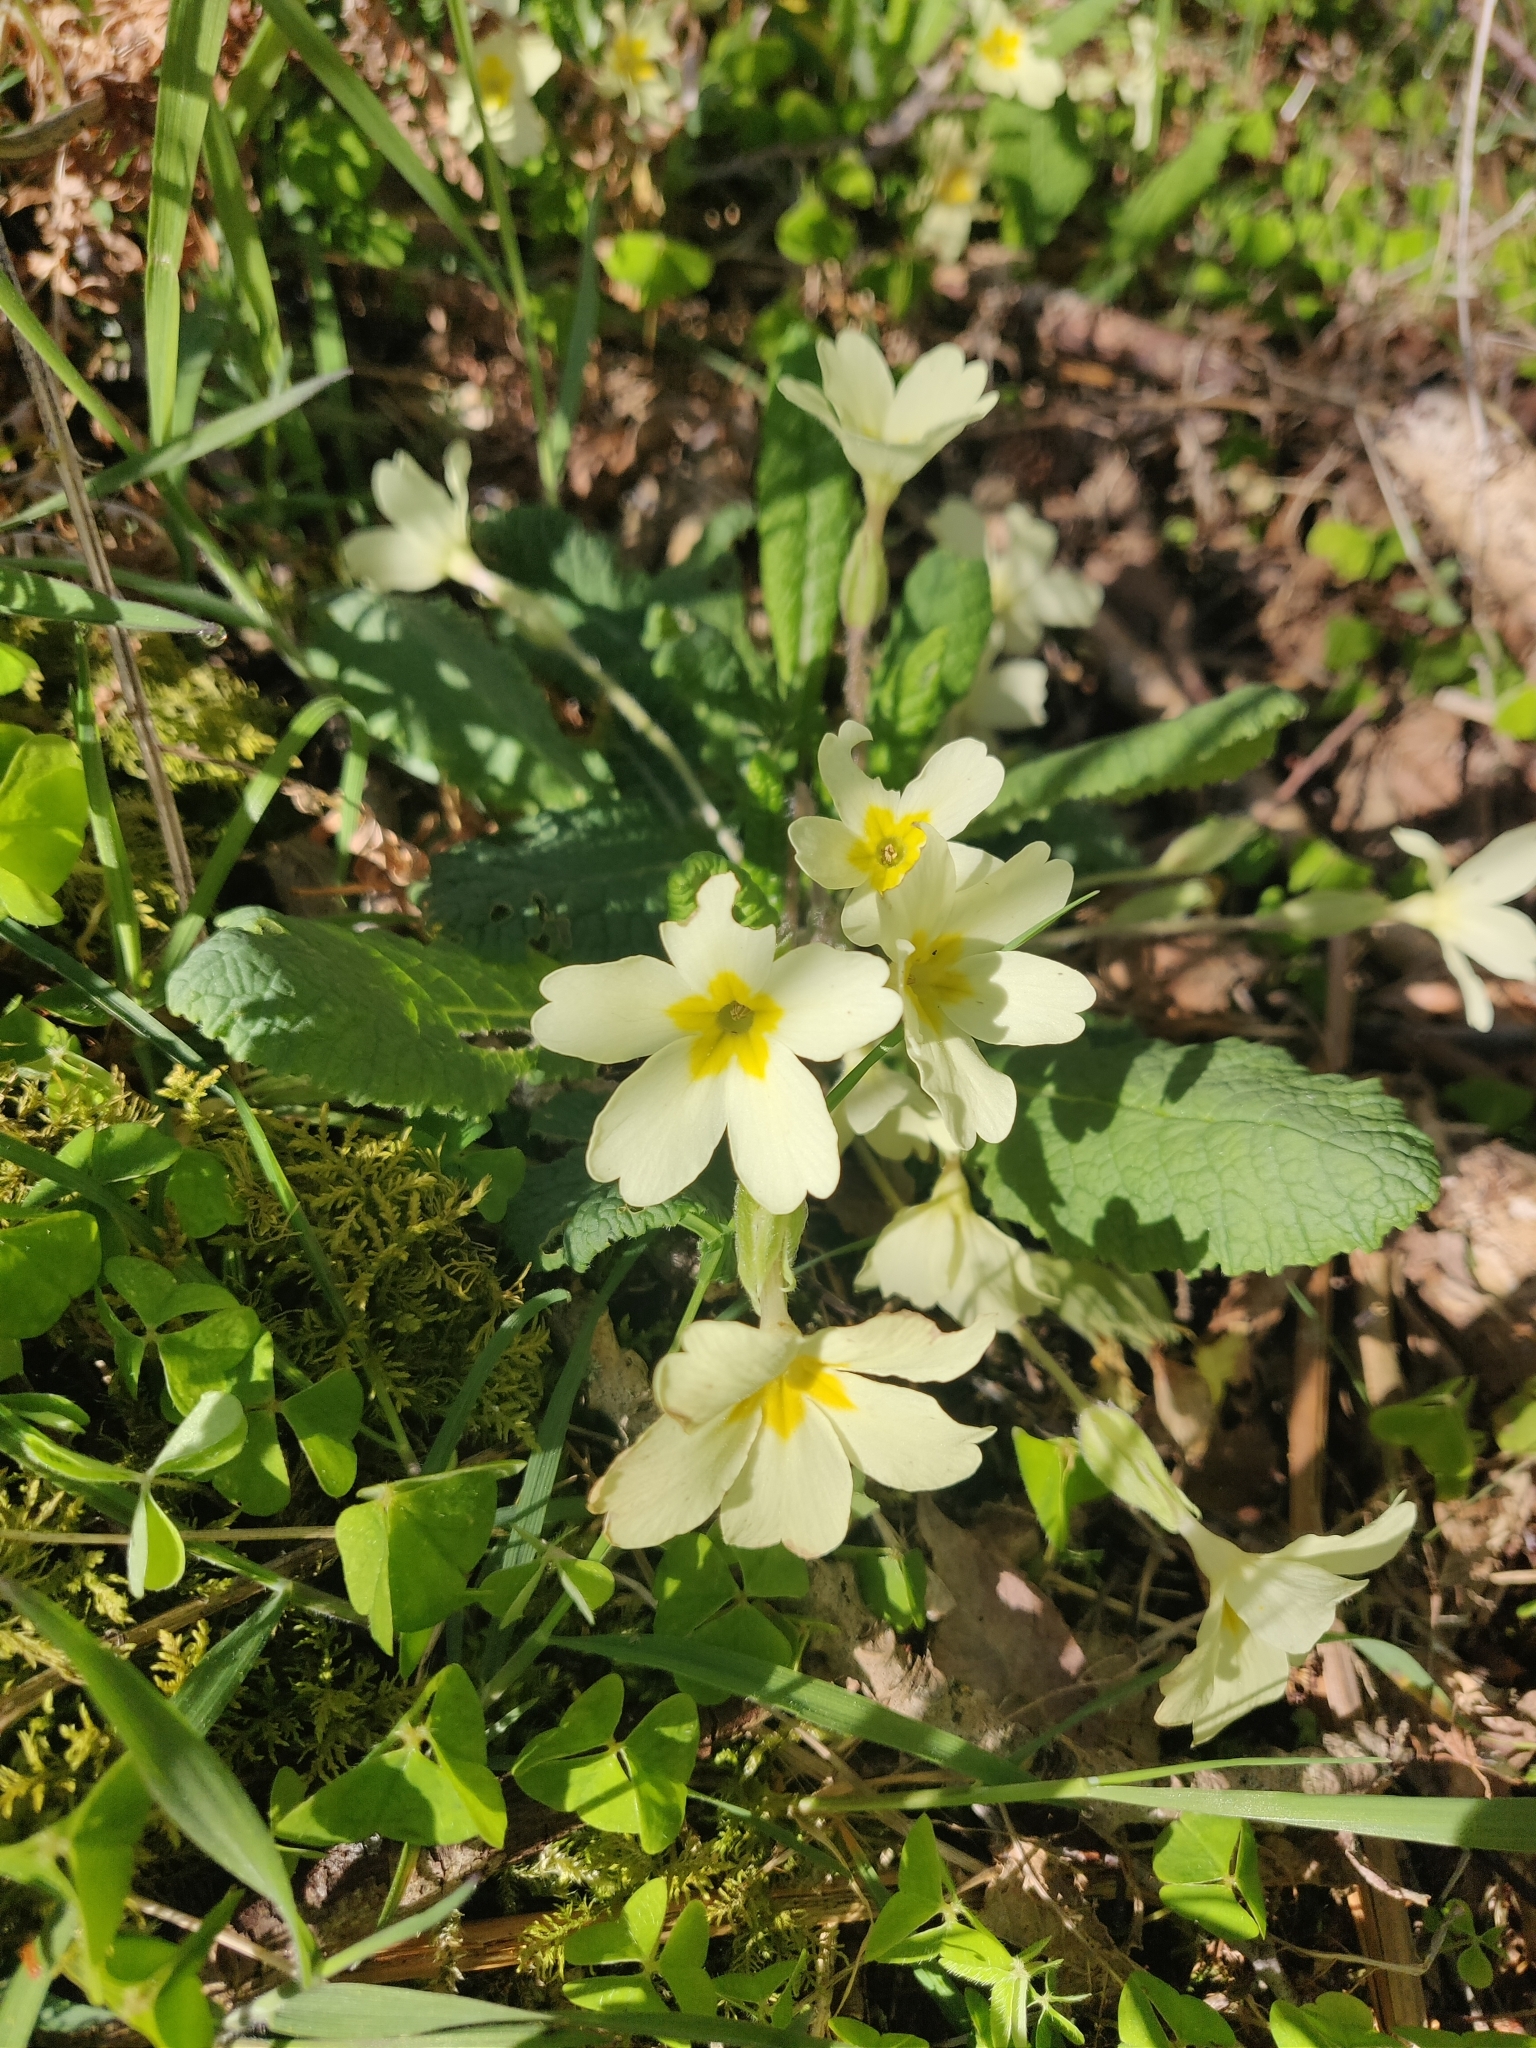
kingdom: Plantae
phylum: Tracheophyta
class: Magnoliopsida
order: Ericales
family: Primulaceae
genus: Primula
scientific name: Primula vulgaris
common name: Primrose
